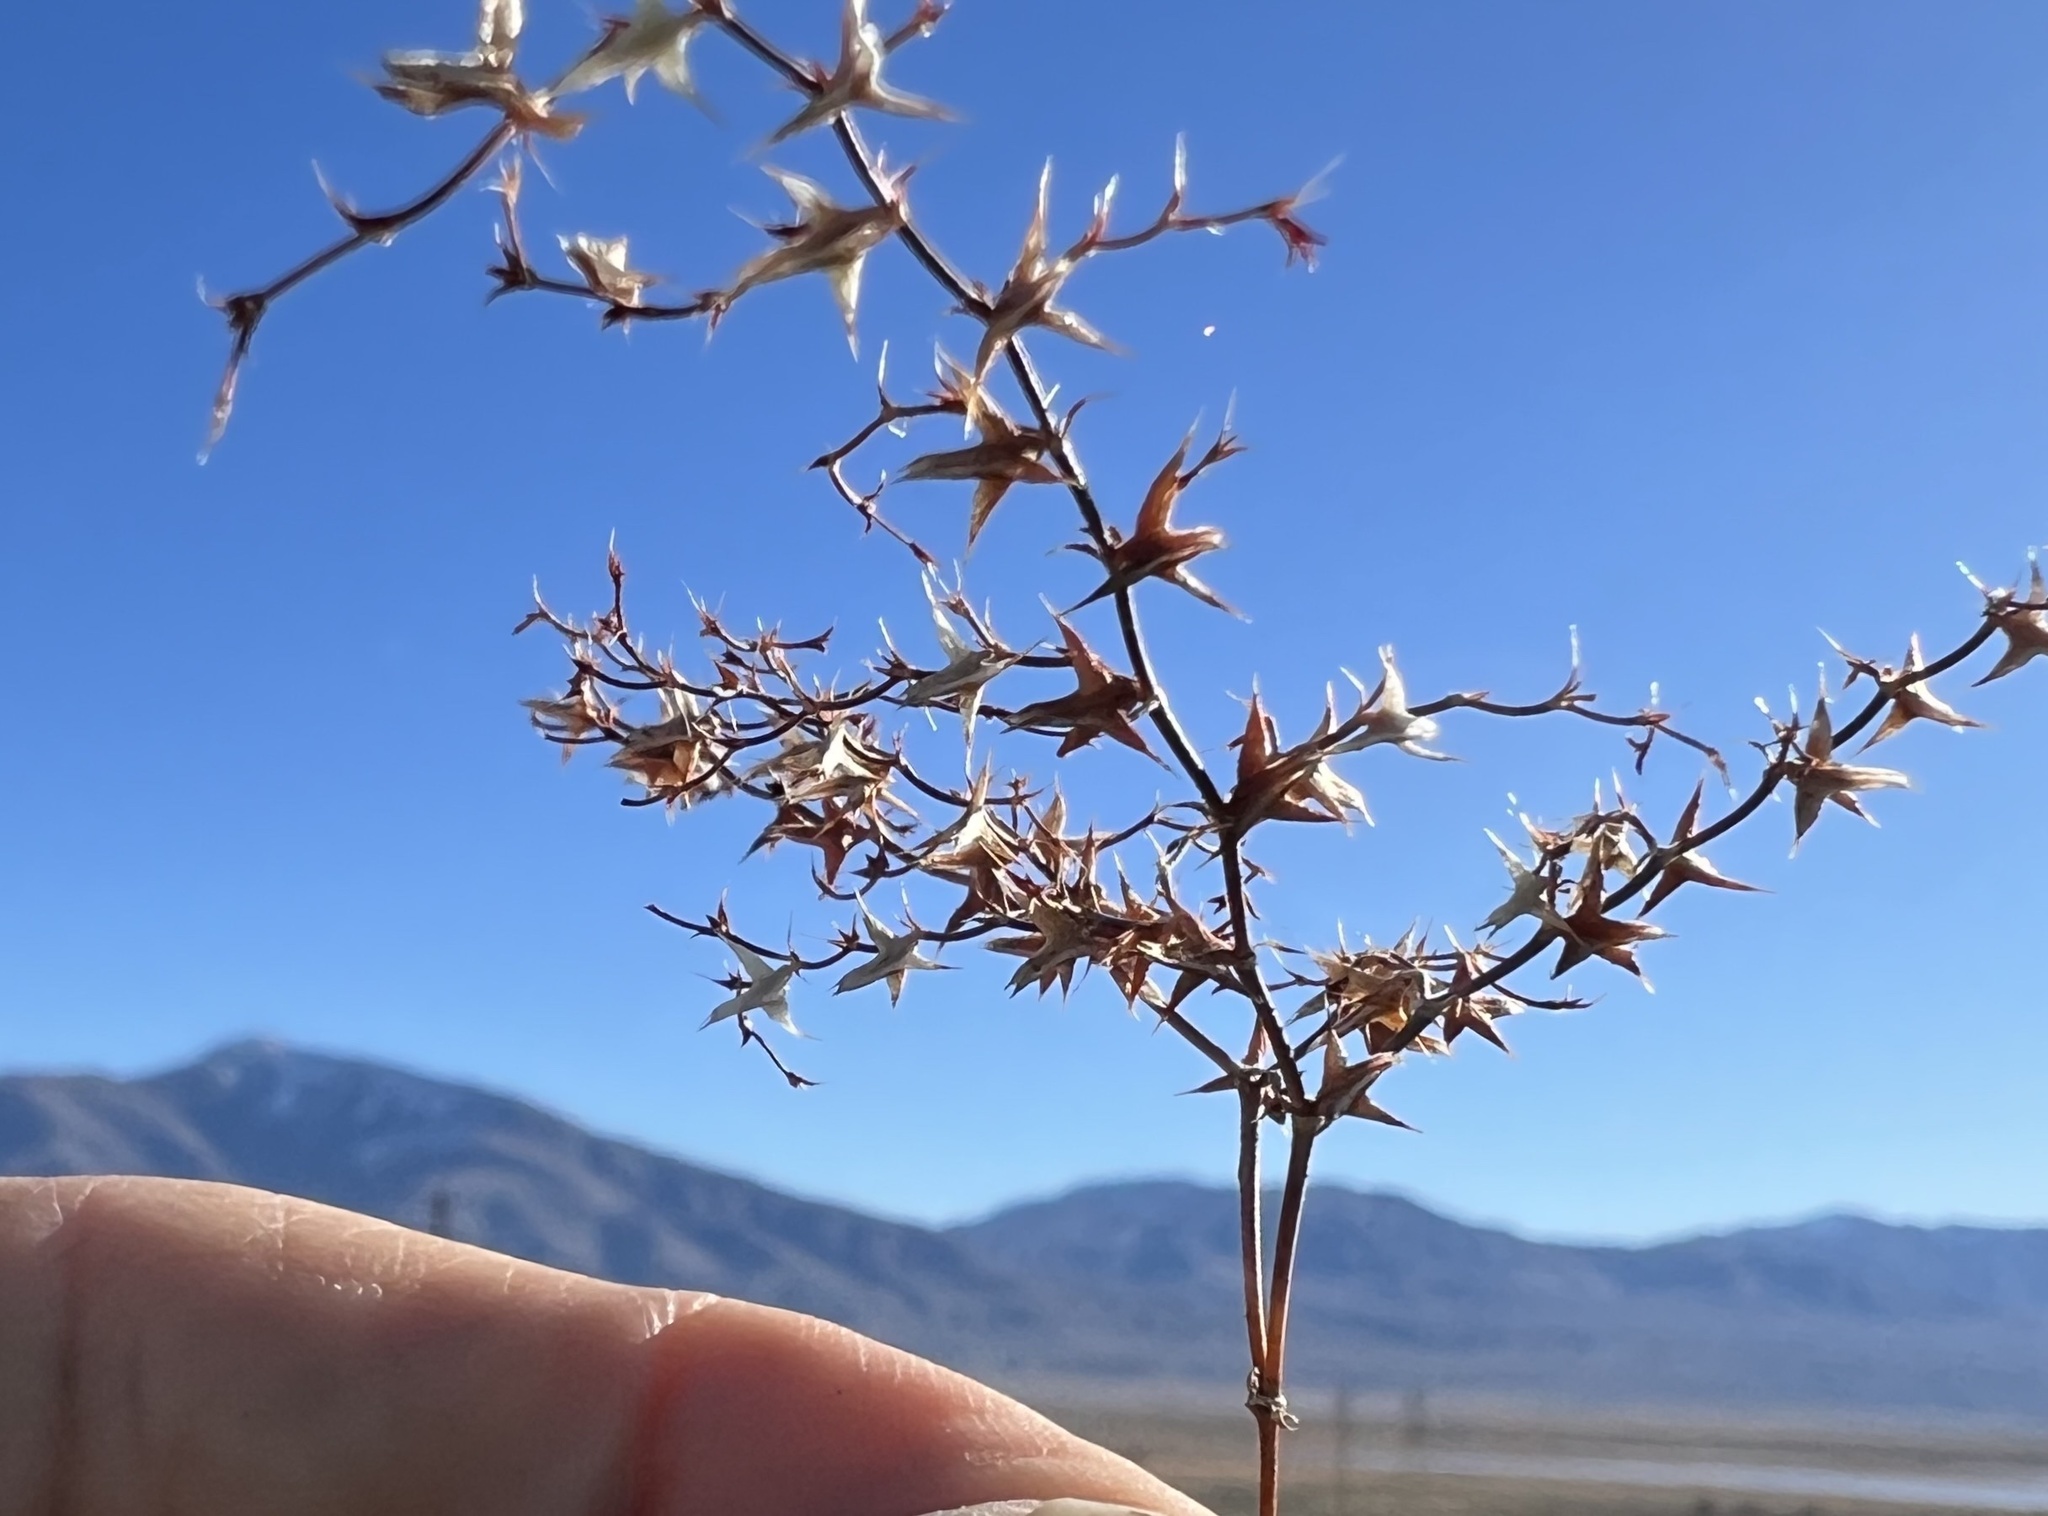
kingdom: Plantae
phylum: Tracheophyta
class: Magnoliopsida
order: Caryophyllales
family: Polygonaceae
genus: Centrostegia
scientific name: Centrostegia thurberi
